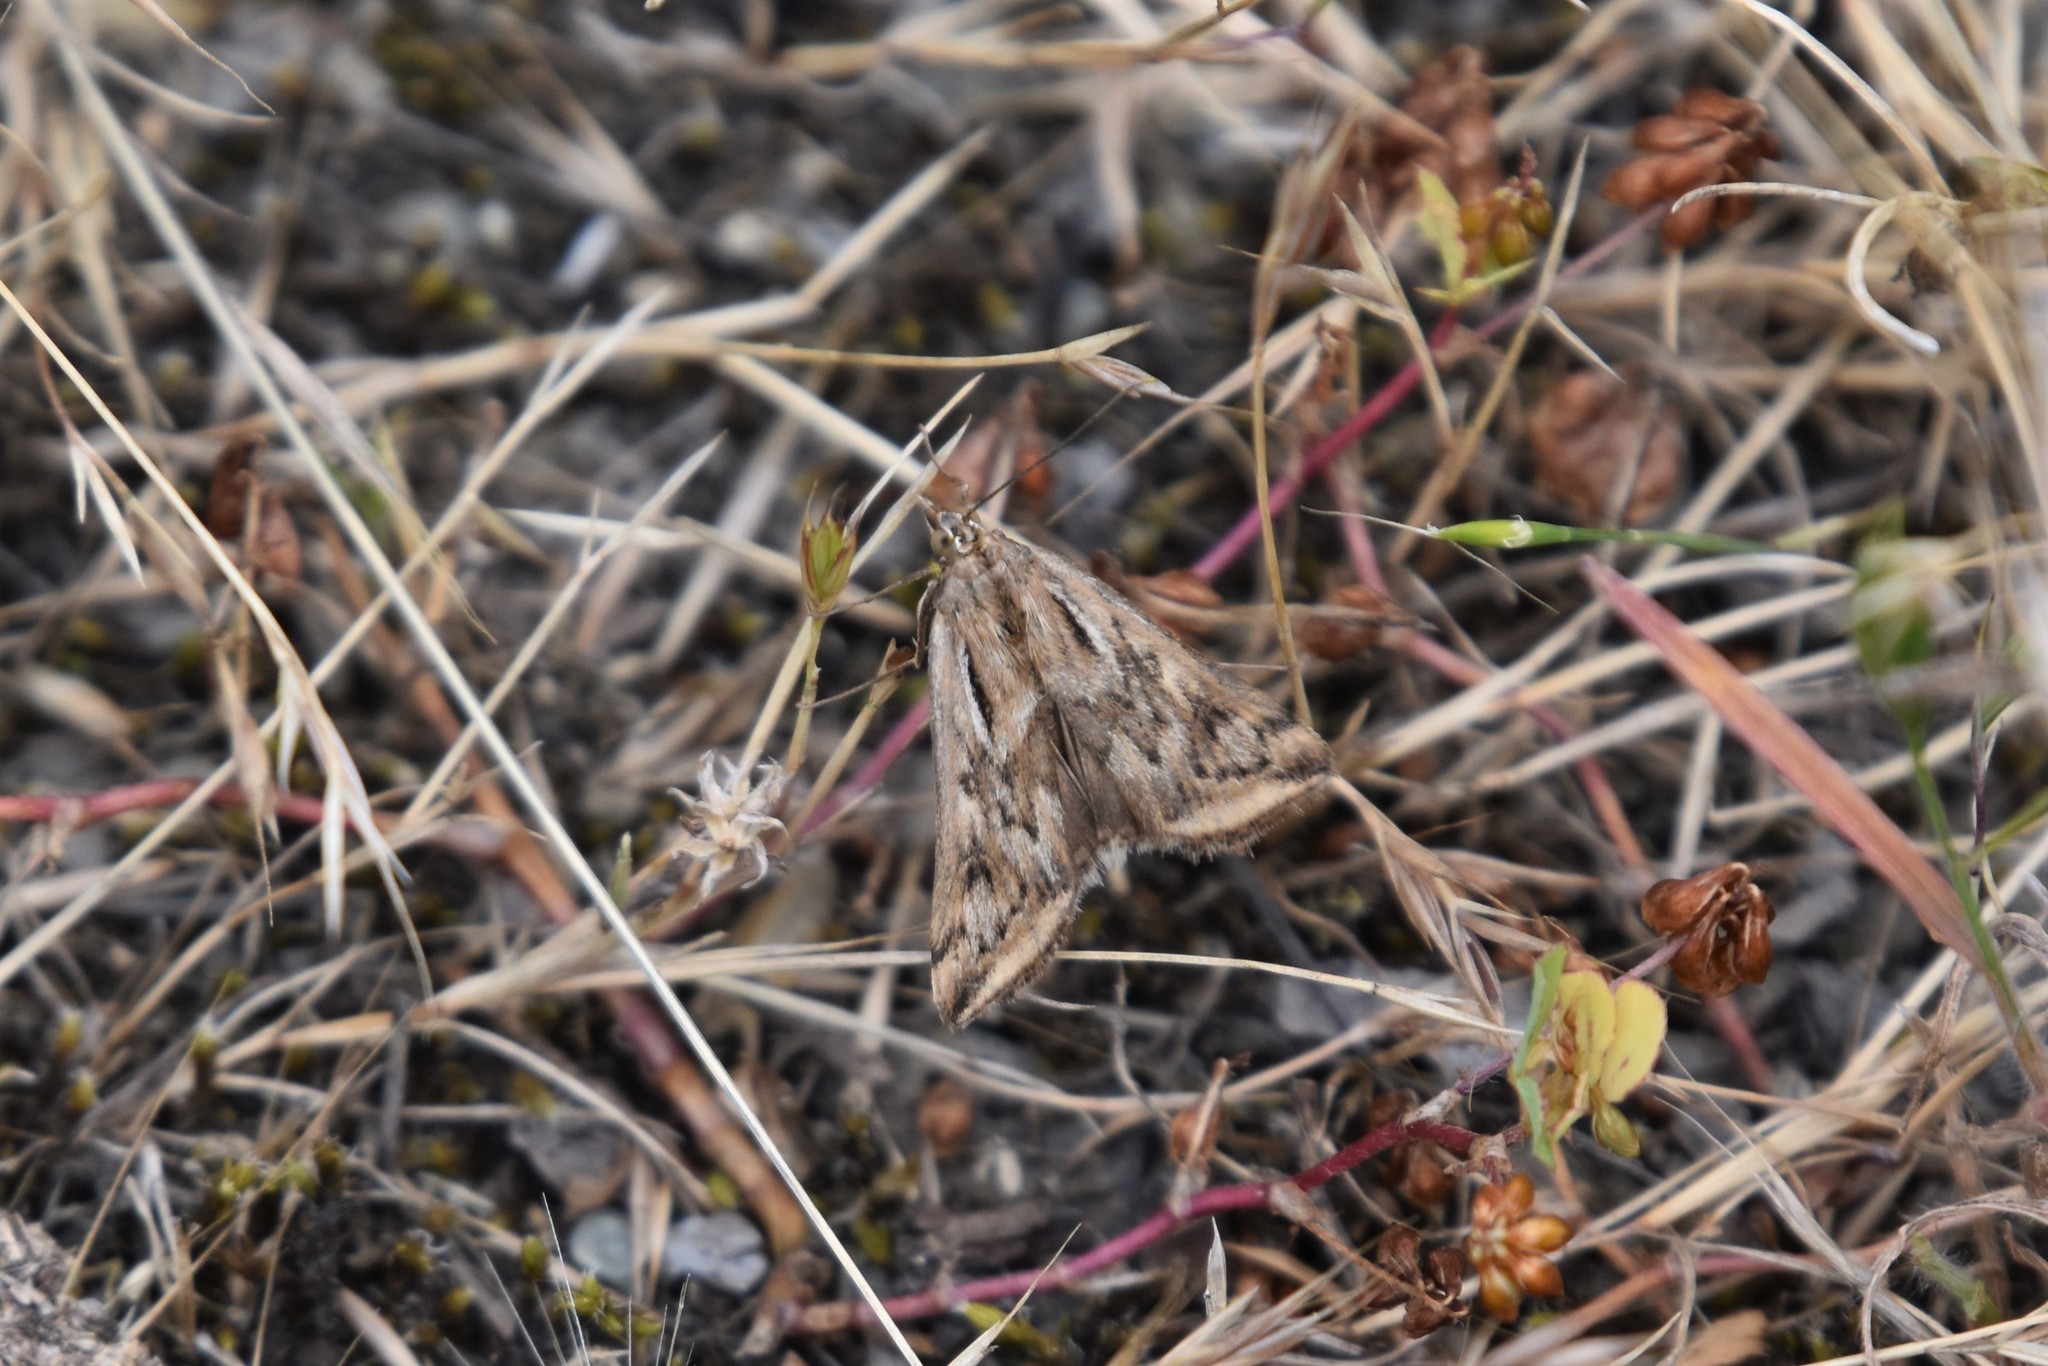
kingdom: Animalia
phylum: Arthropoda
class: Insecta
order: Lepidoptera
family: Crambidae
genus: Loxostege
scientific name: Loxostege cereralis
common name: Alfalfa webworm moth
